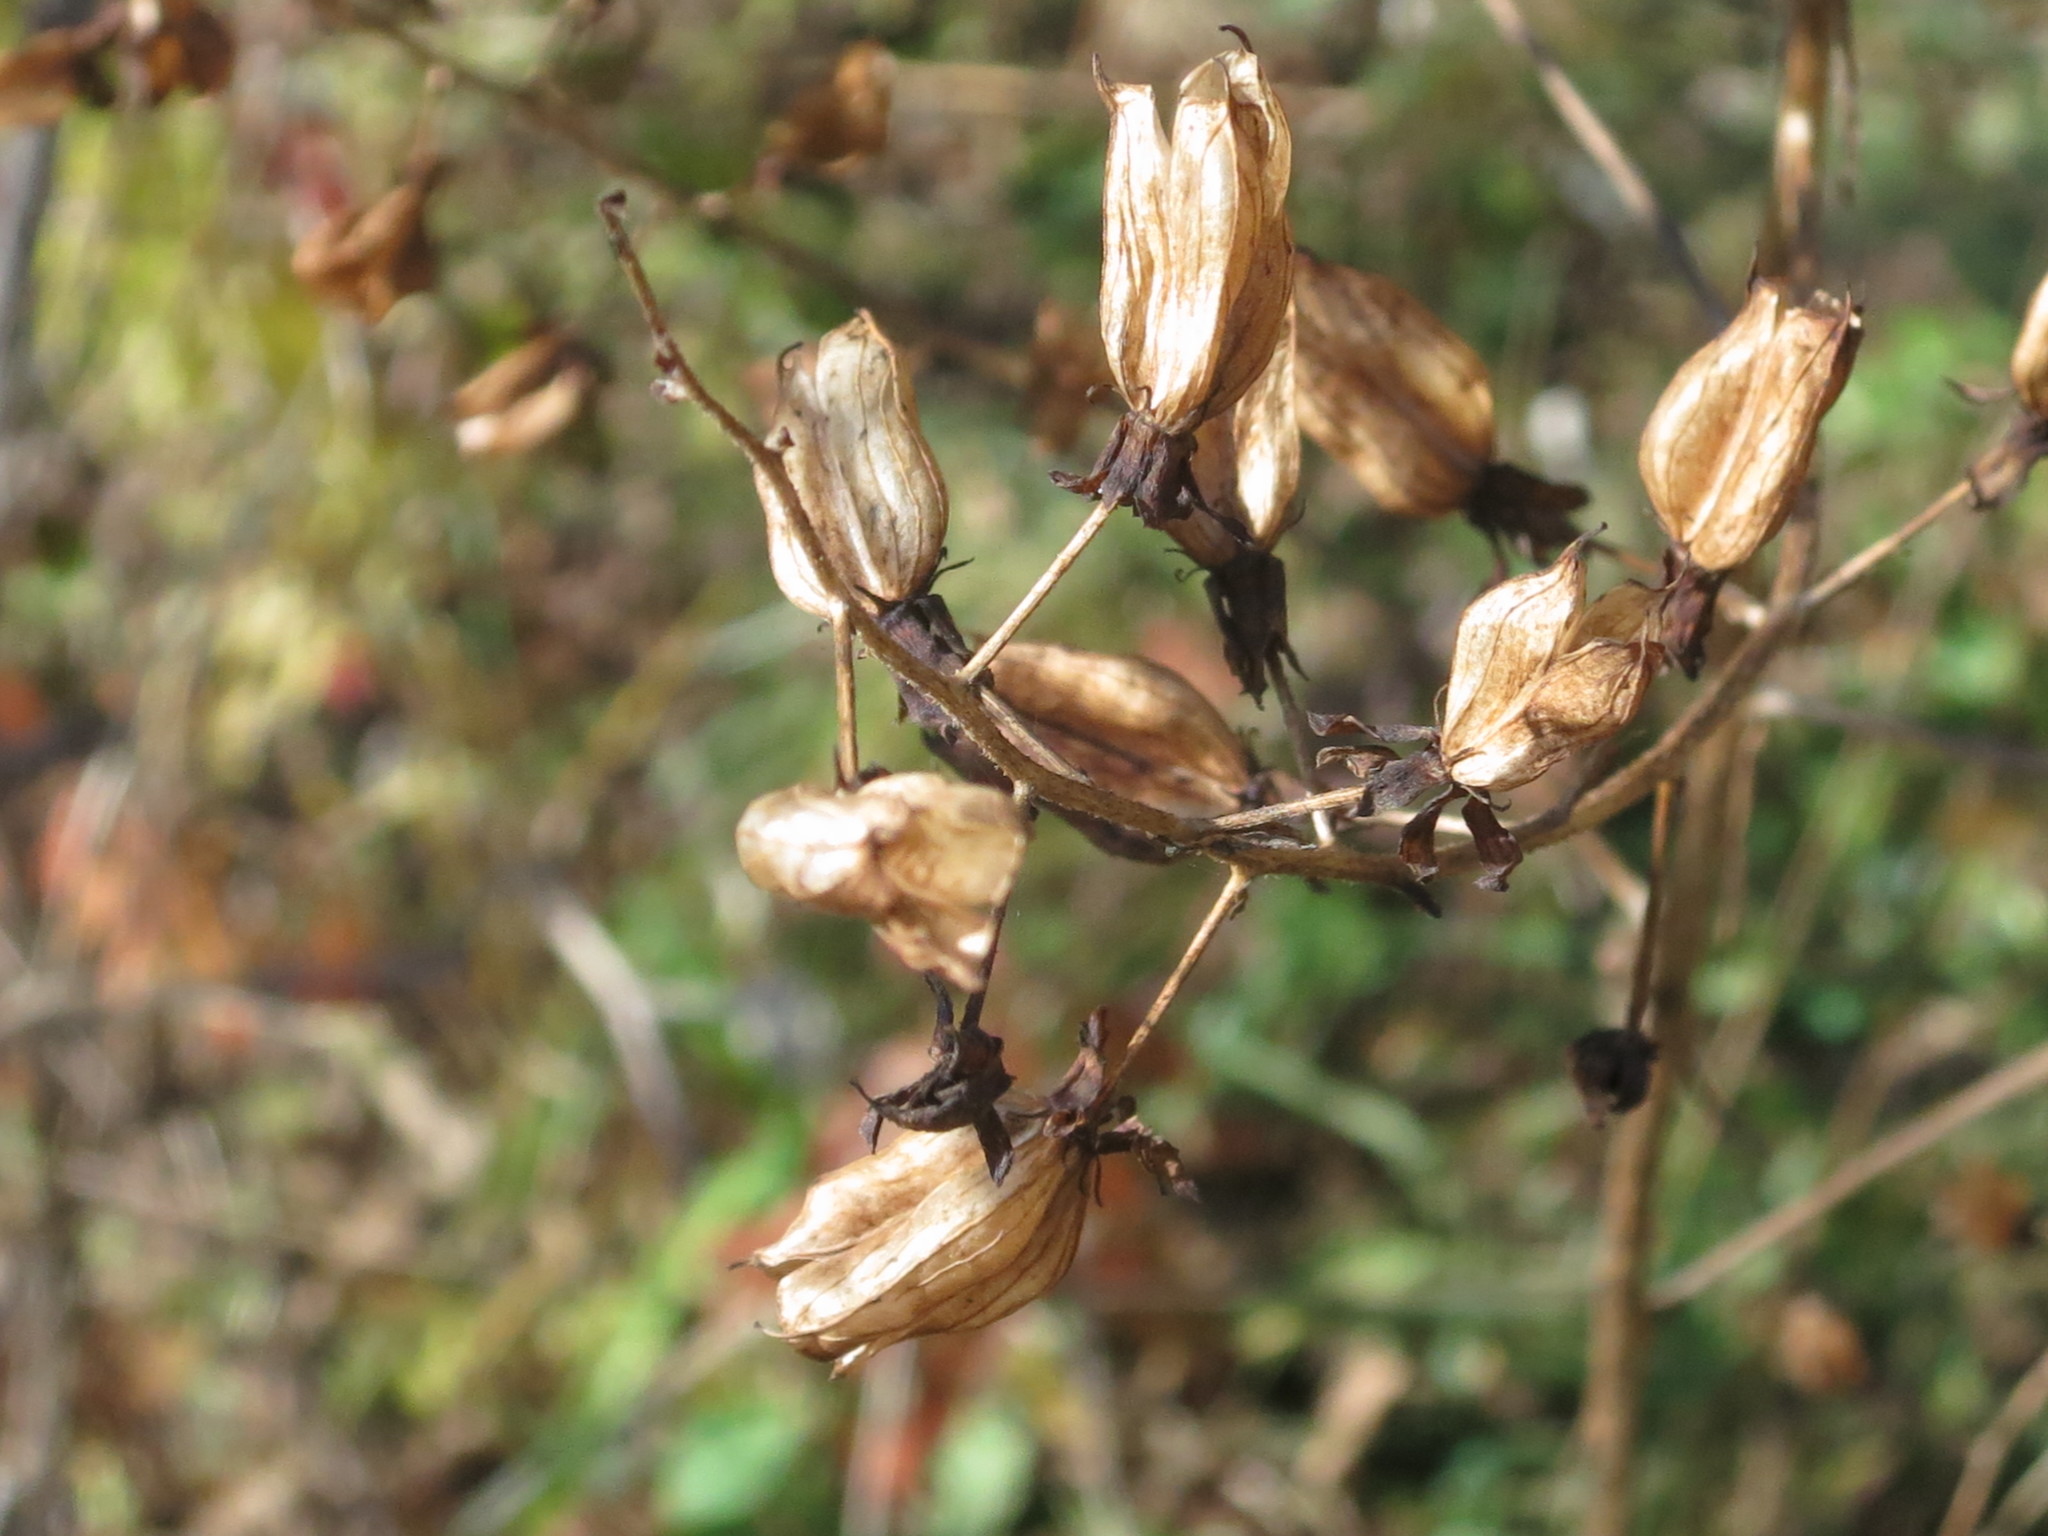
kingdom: Plantae
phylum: Tracheophyta
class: Liliopsida
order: Liliales
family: Melanthiaceae
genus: Veratrum
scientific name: Veratrum maackii
